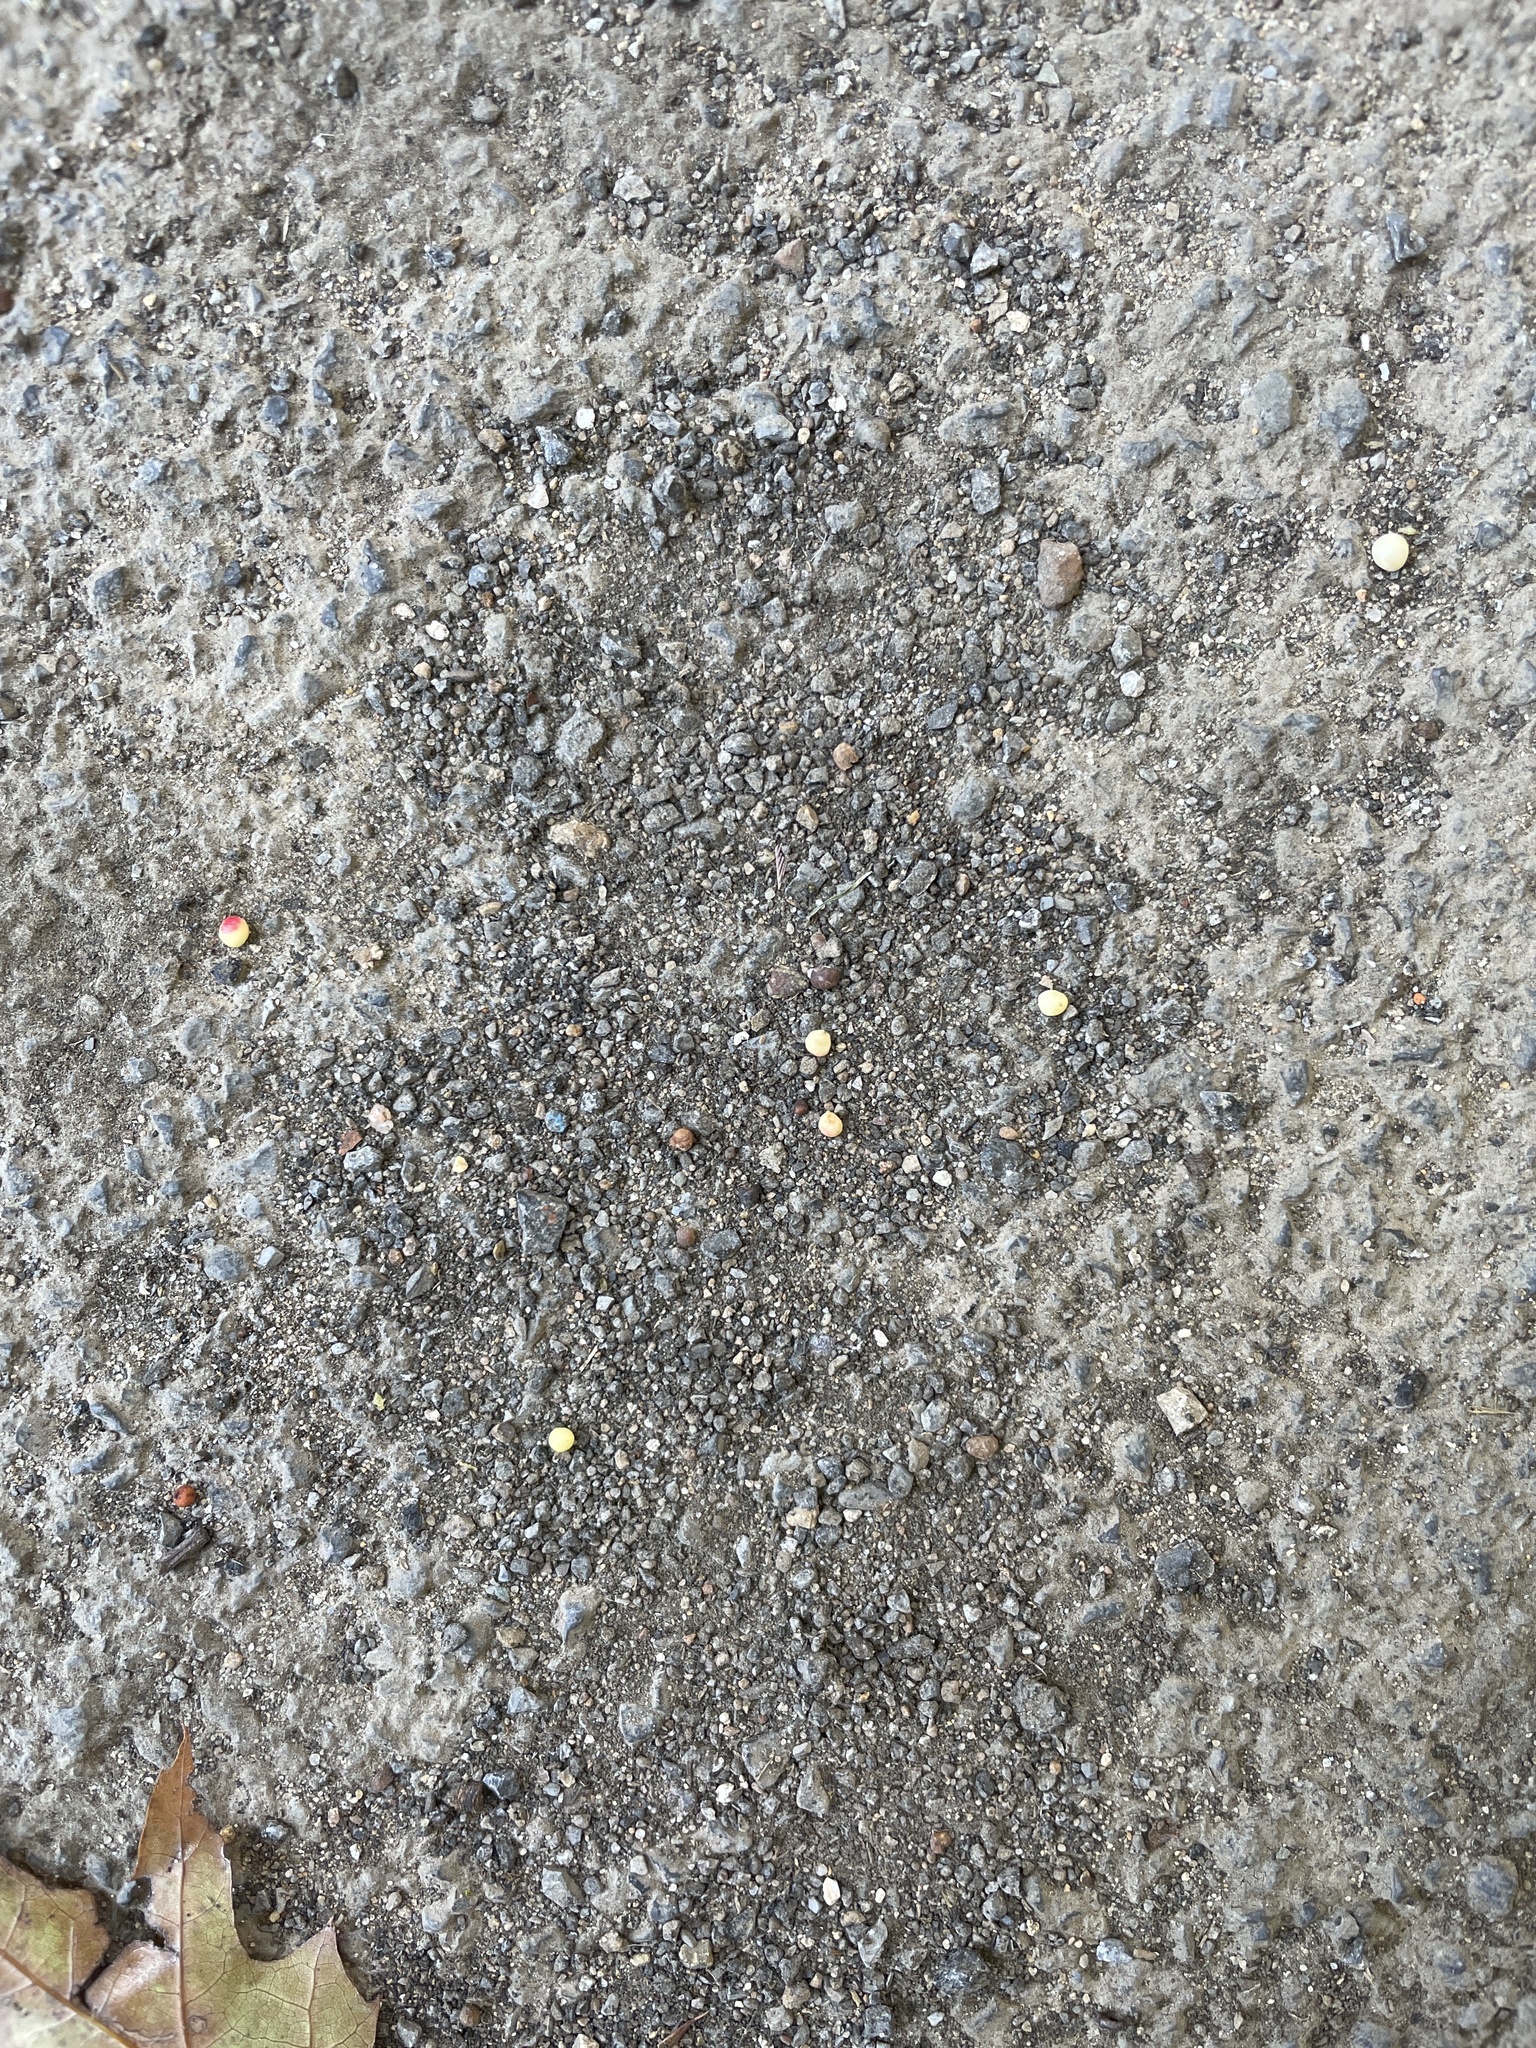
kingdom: Animalia
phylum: Arthropoda
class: Insecta
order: Hymenoptera
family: Cynipidae
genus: Zopheroteras
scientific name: Zopheroteras
